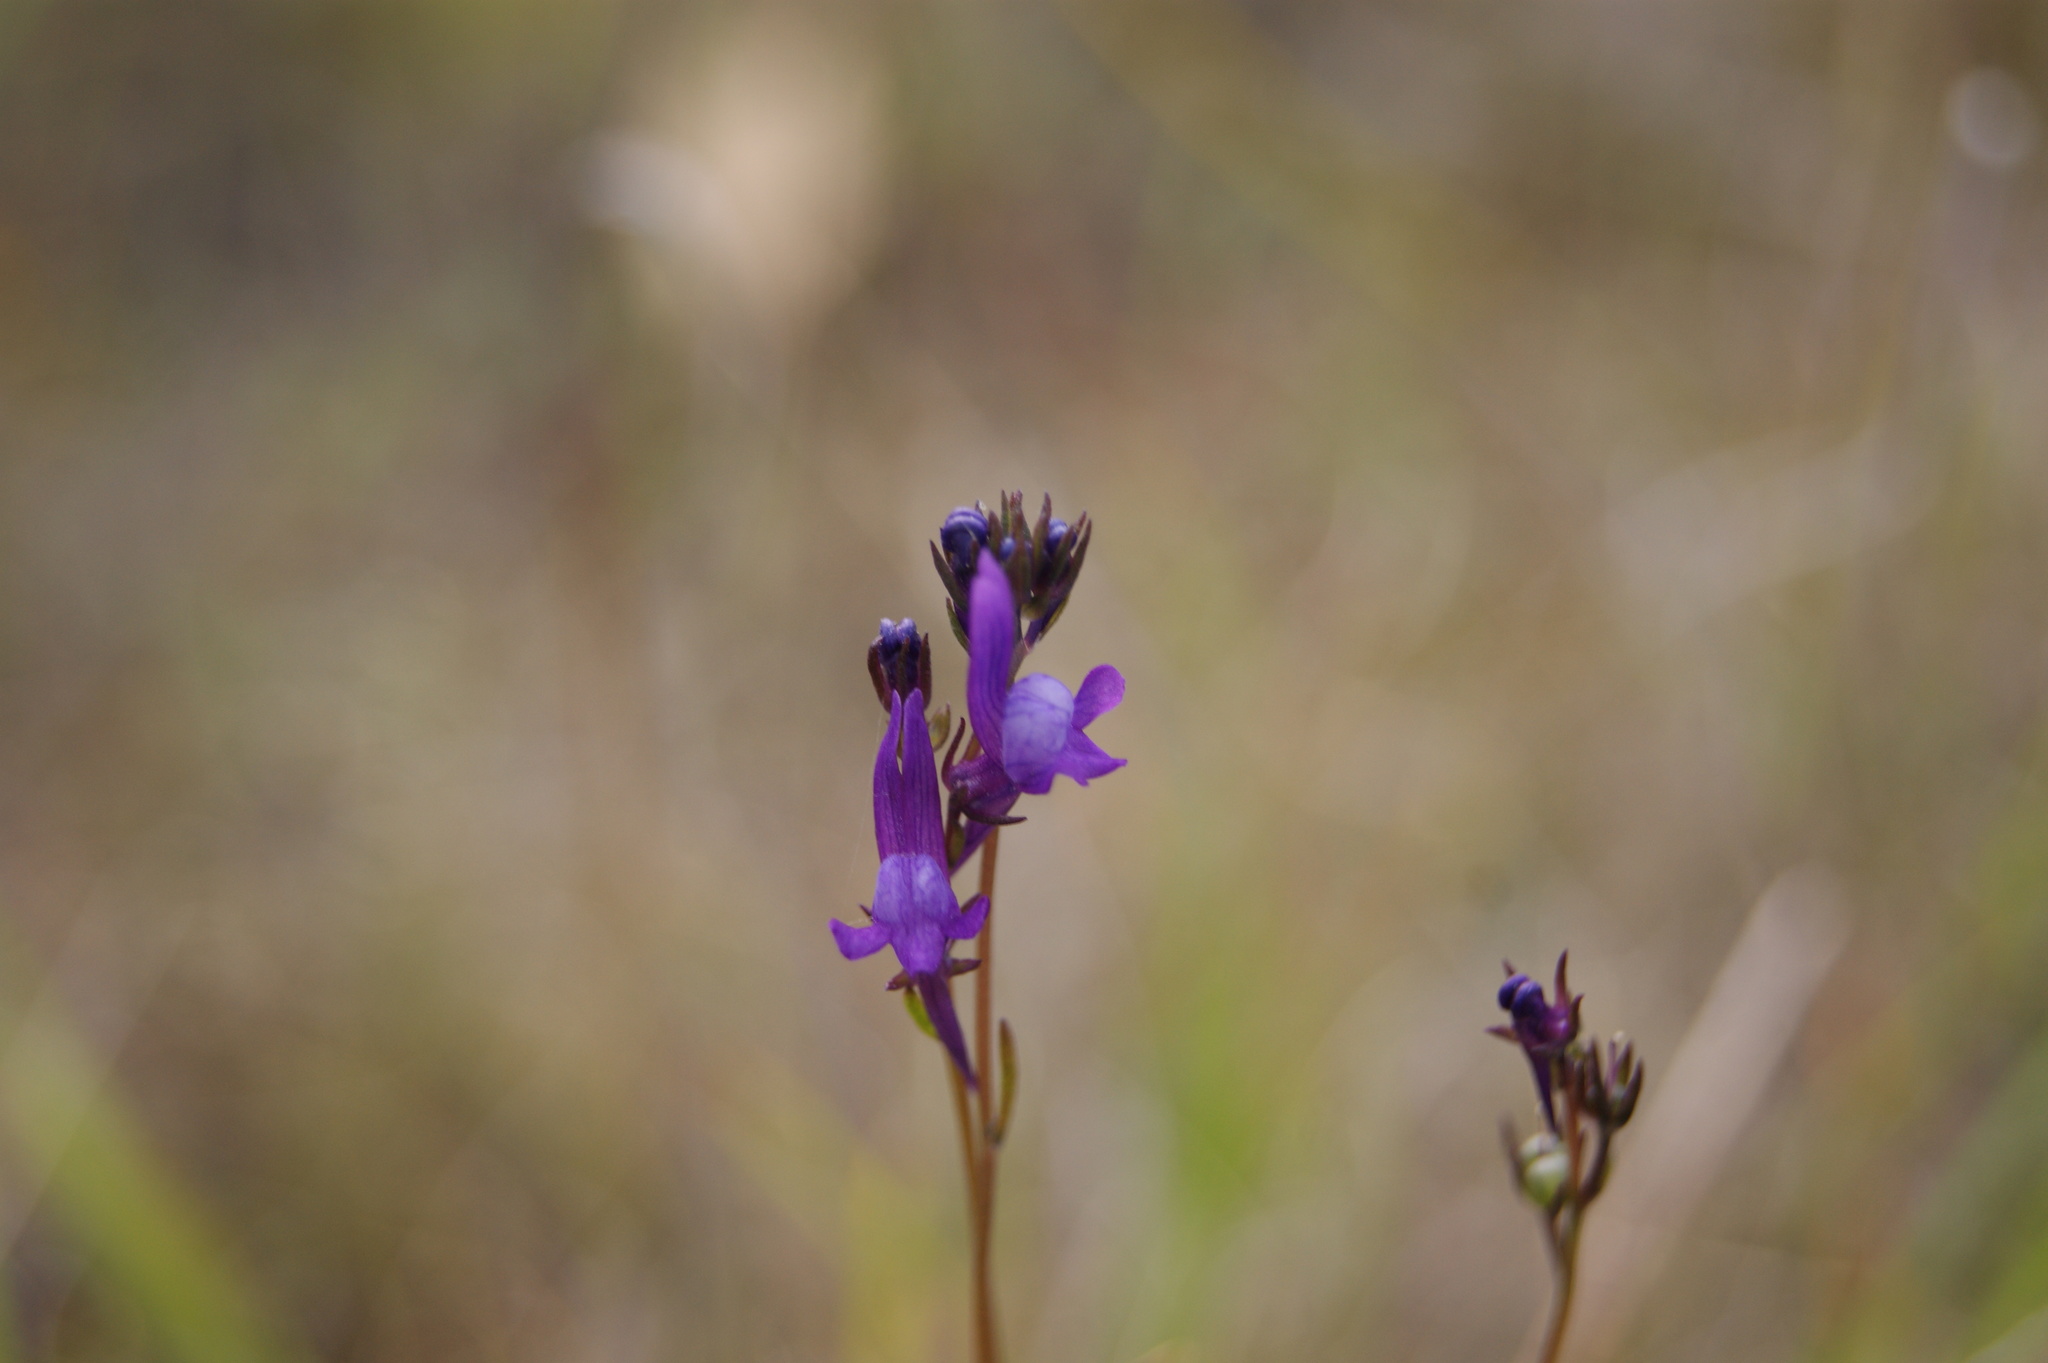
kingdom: Plantae
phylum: Tracheophyta
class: Magnoliopsida
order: Lamiales
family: Plantaginaceae
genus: Linaria
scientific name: Linaria pelisseriana
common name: Jersey toadflax
